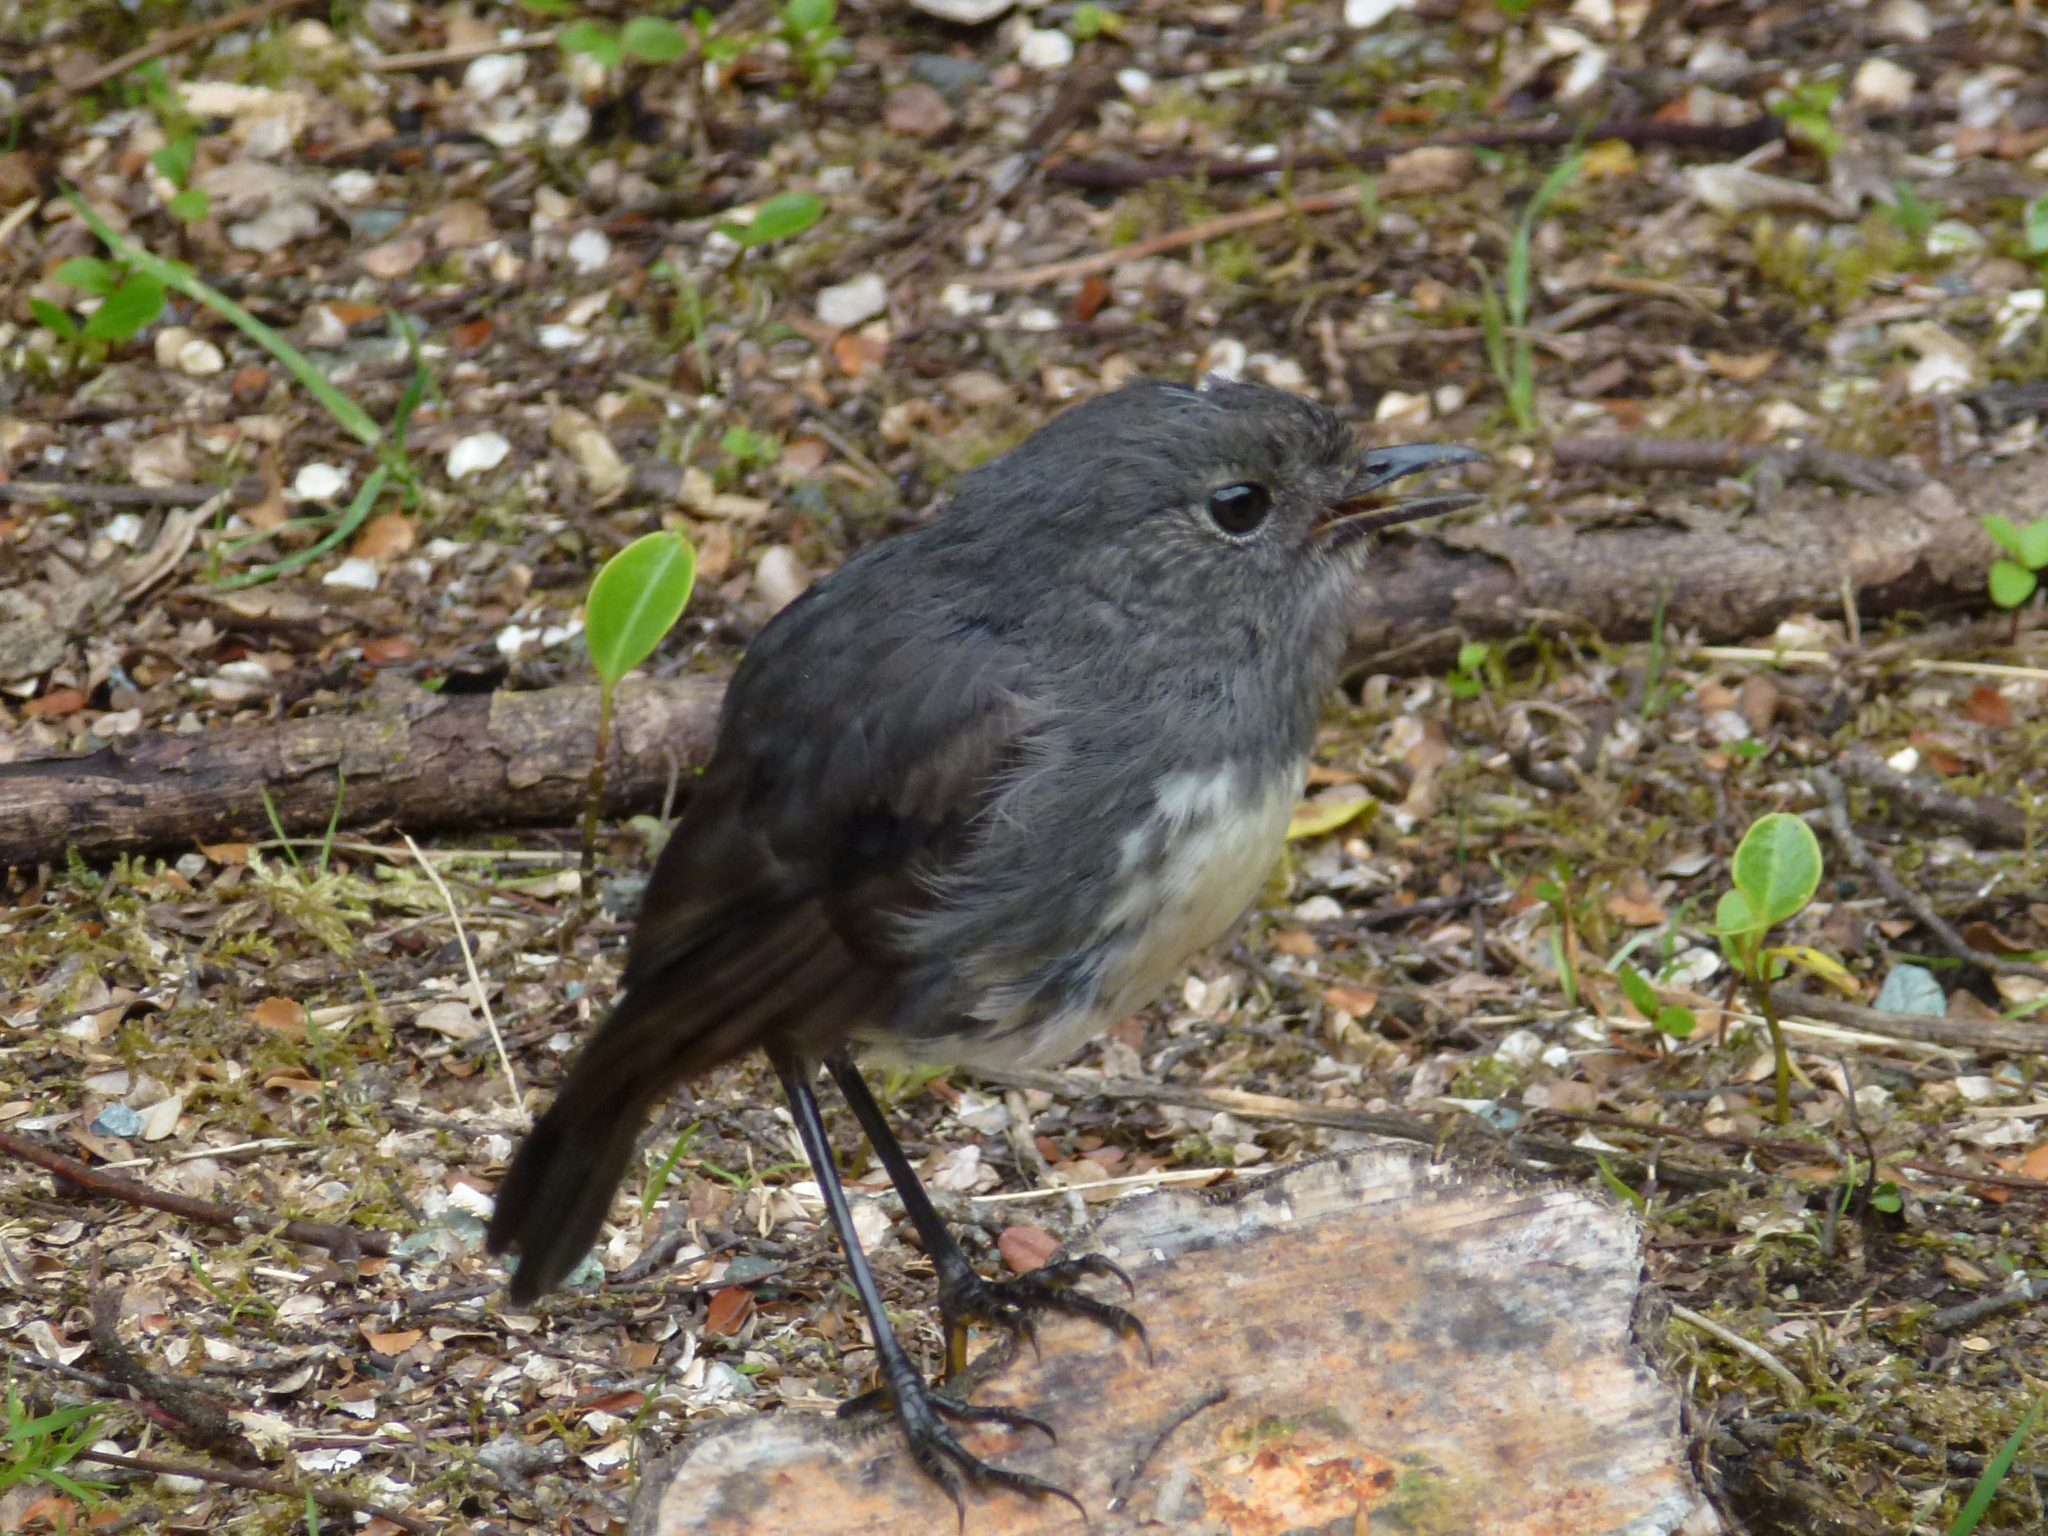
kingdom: Animalia
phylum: Chordata
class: Aves
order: Passeriformes
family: Petroicidae
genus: Petroica
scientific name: Petroica australis
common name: New zealand robin
